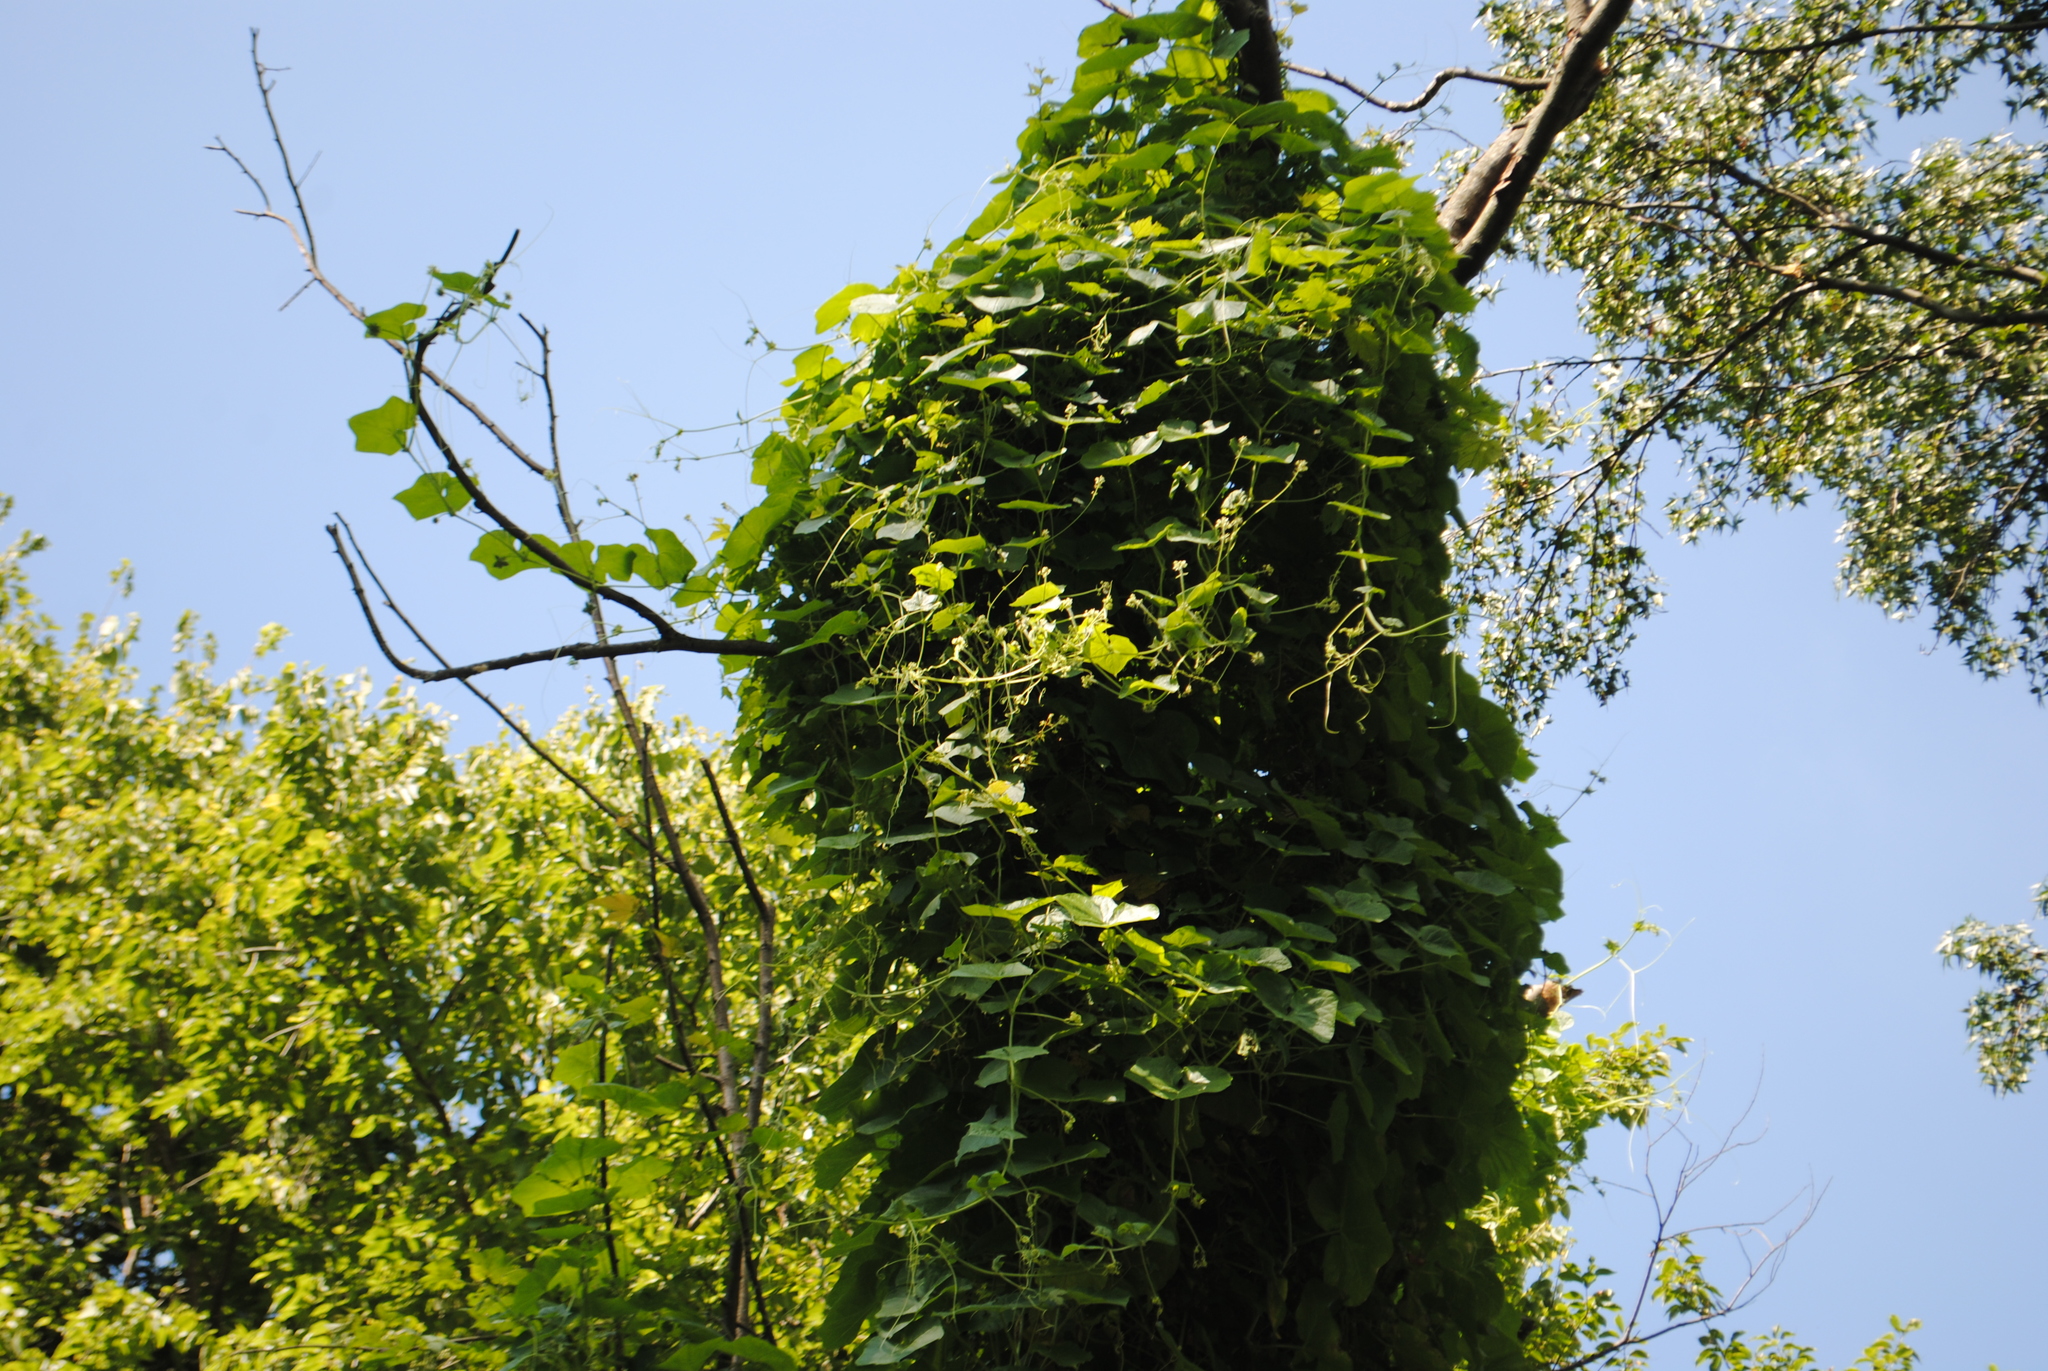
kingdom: Plantae
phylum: Tracheophyta
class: Magnoliopsida
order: Cucurbitales
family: Cucurbitaceae
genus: Sicyos
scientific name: Sicyos angulatus
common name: Angled burr cucumber
